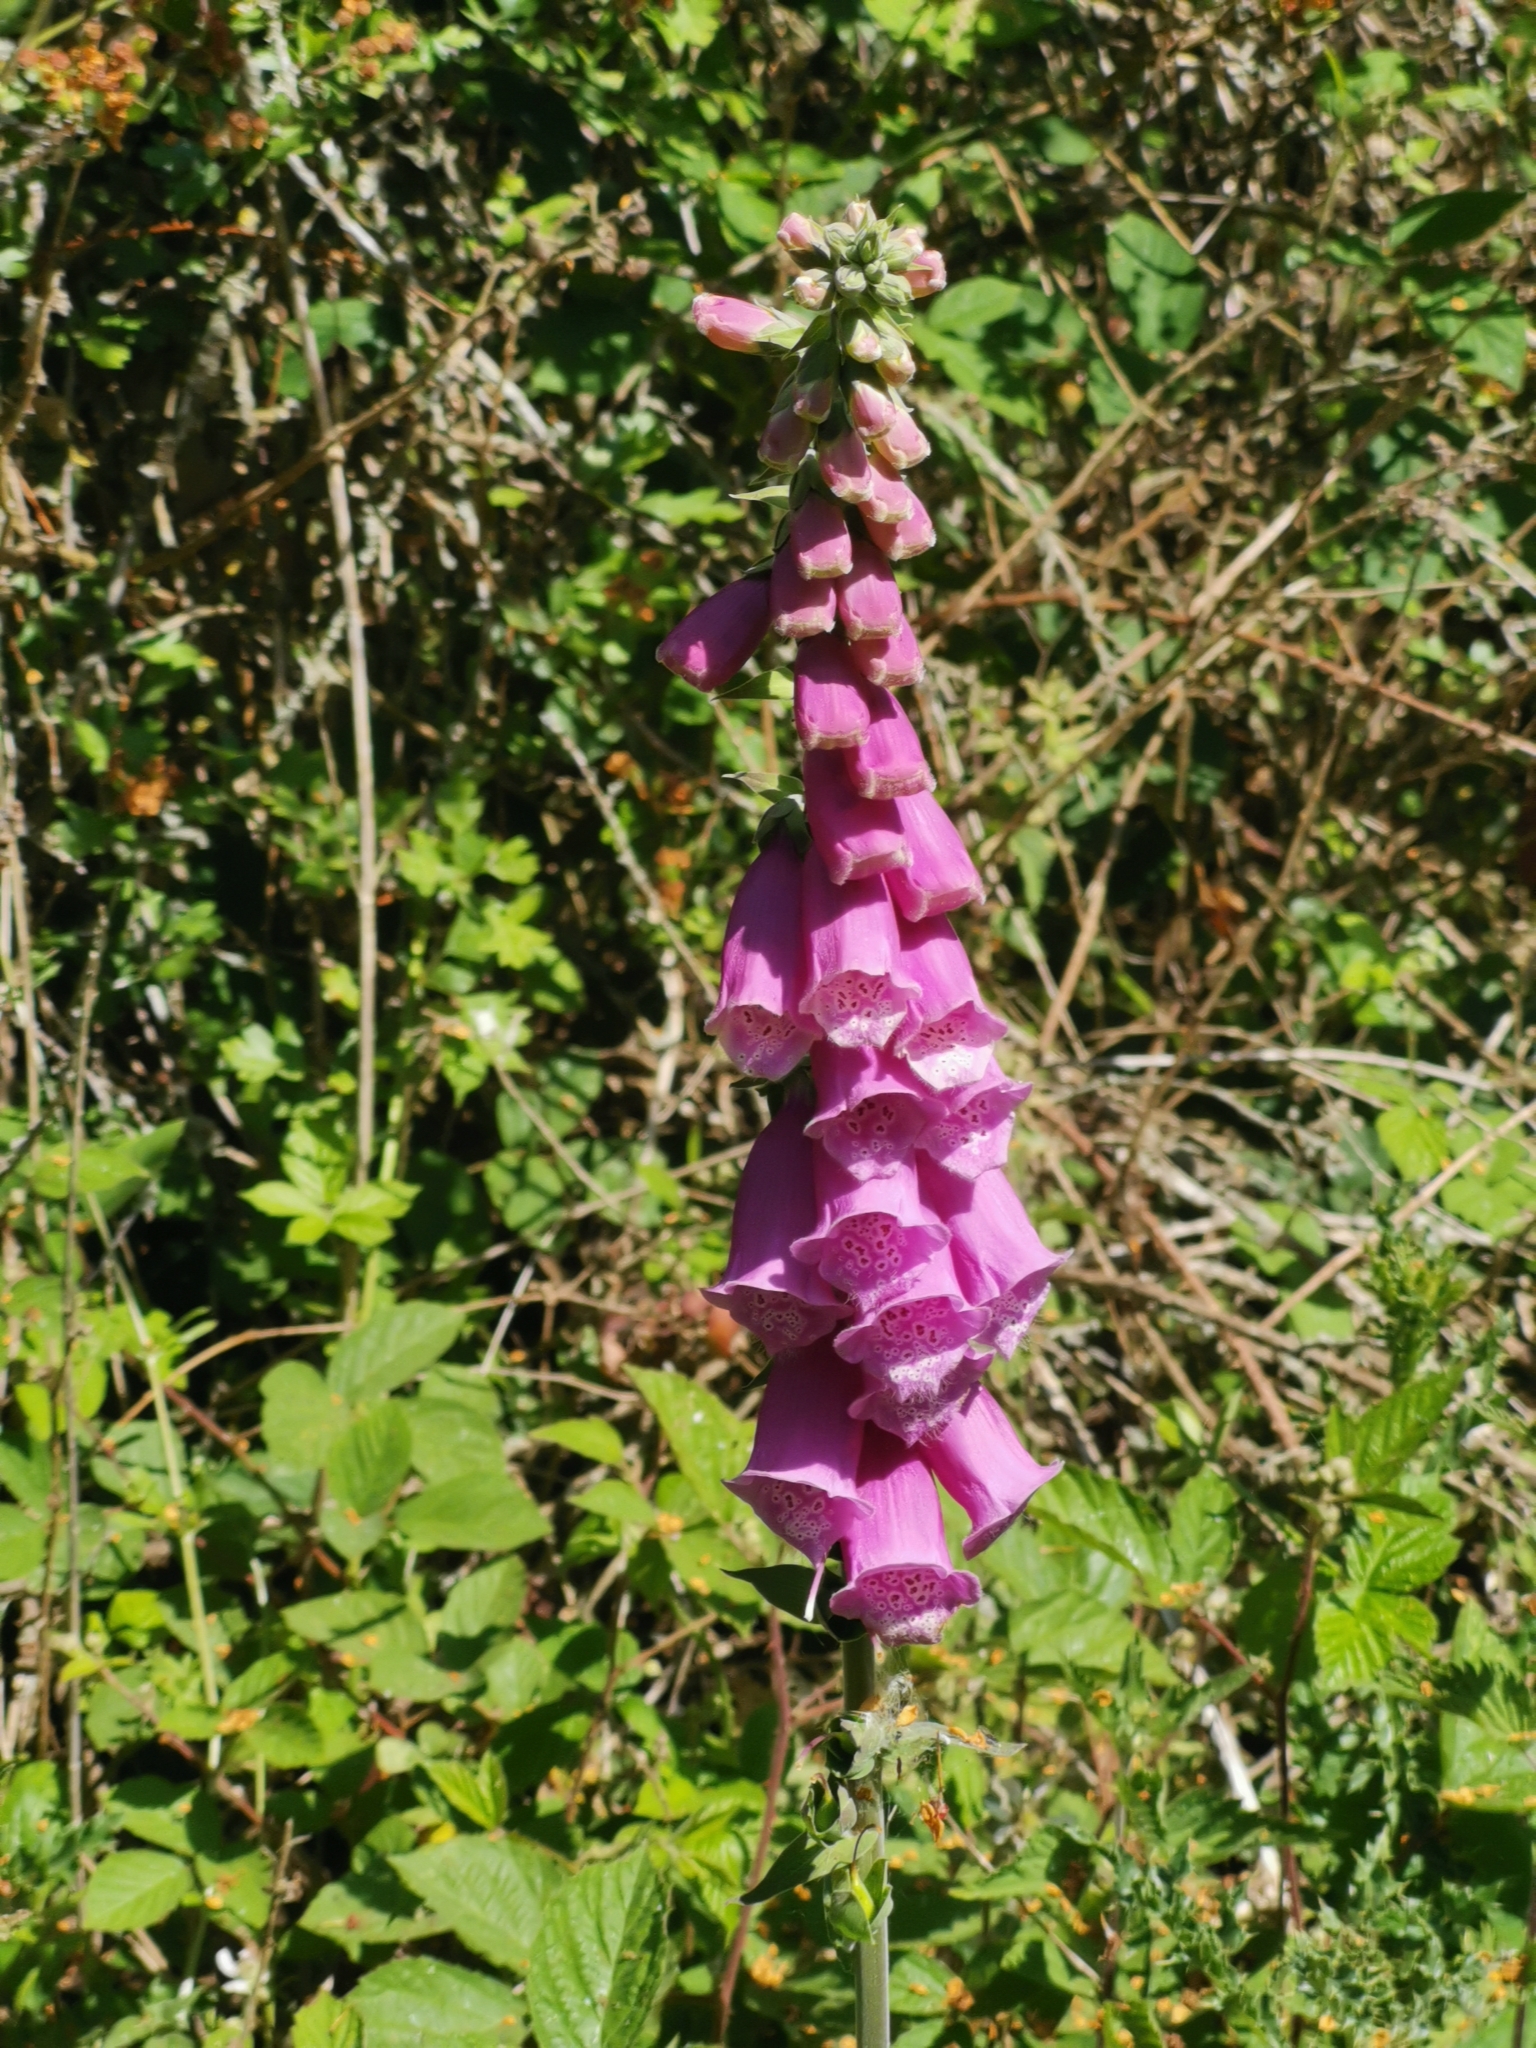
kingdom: Plantae
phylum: Tracheophyta
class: Magnoliopsida
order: Lamiales
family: Plantaginaceae
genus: Digitalis
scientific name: Digitalis purpurea
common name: Foxglove
